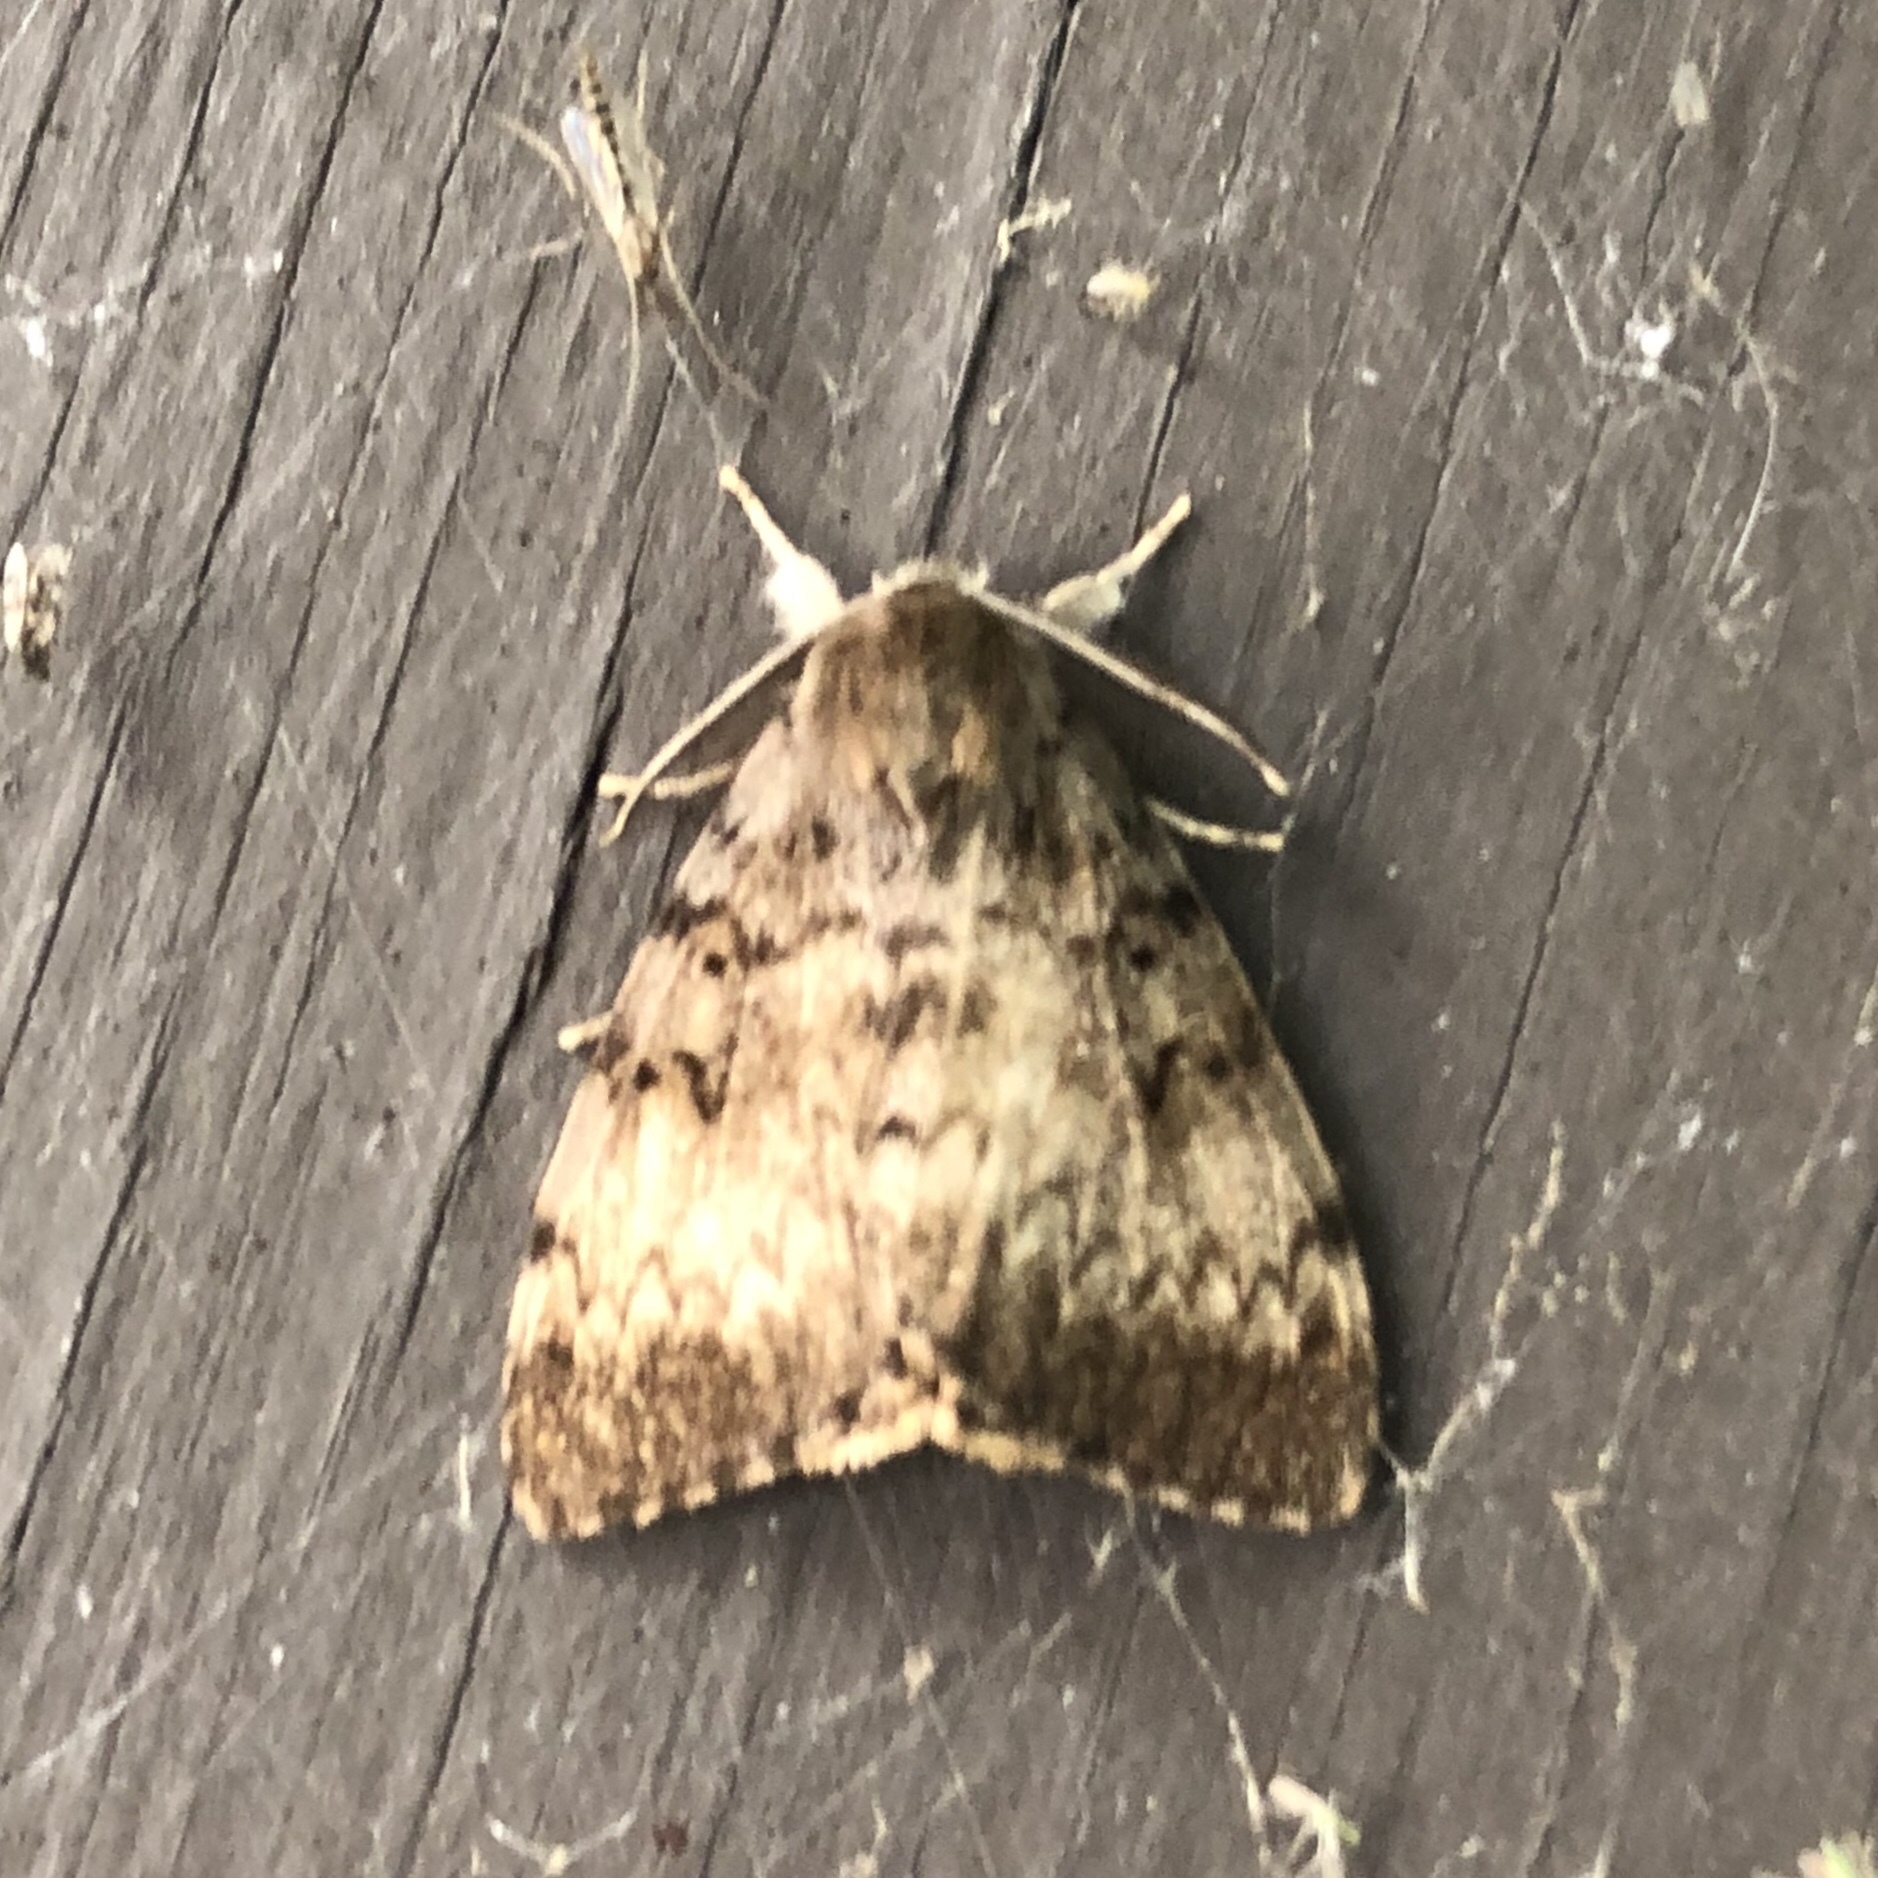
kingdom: Animalia
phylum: Arthropoda
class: Insecta
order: Lepidoptera
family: Erebidae
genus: Lymantria
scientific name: Lymantria dispar
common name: Gypsy moth
